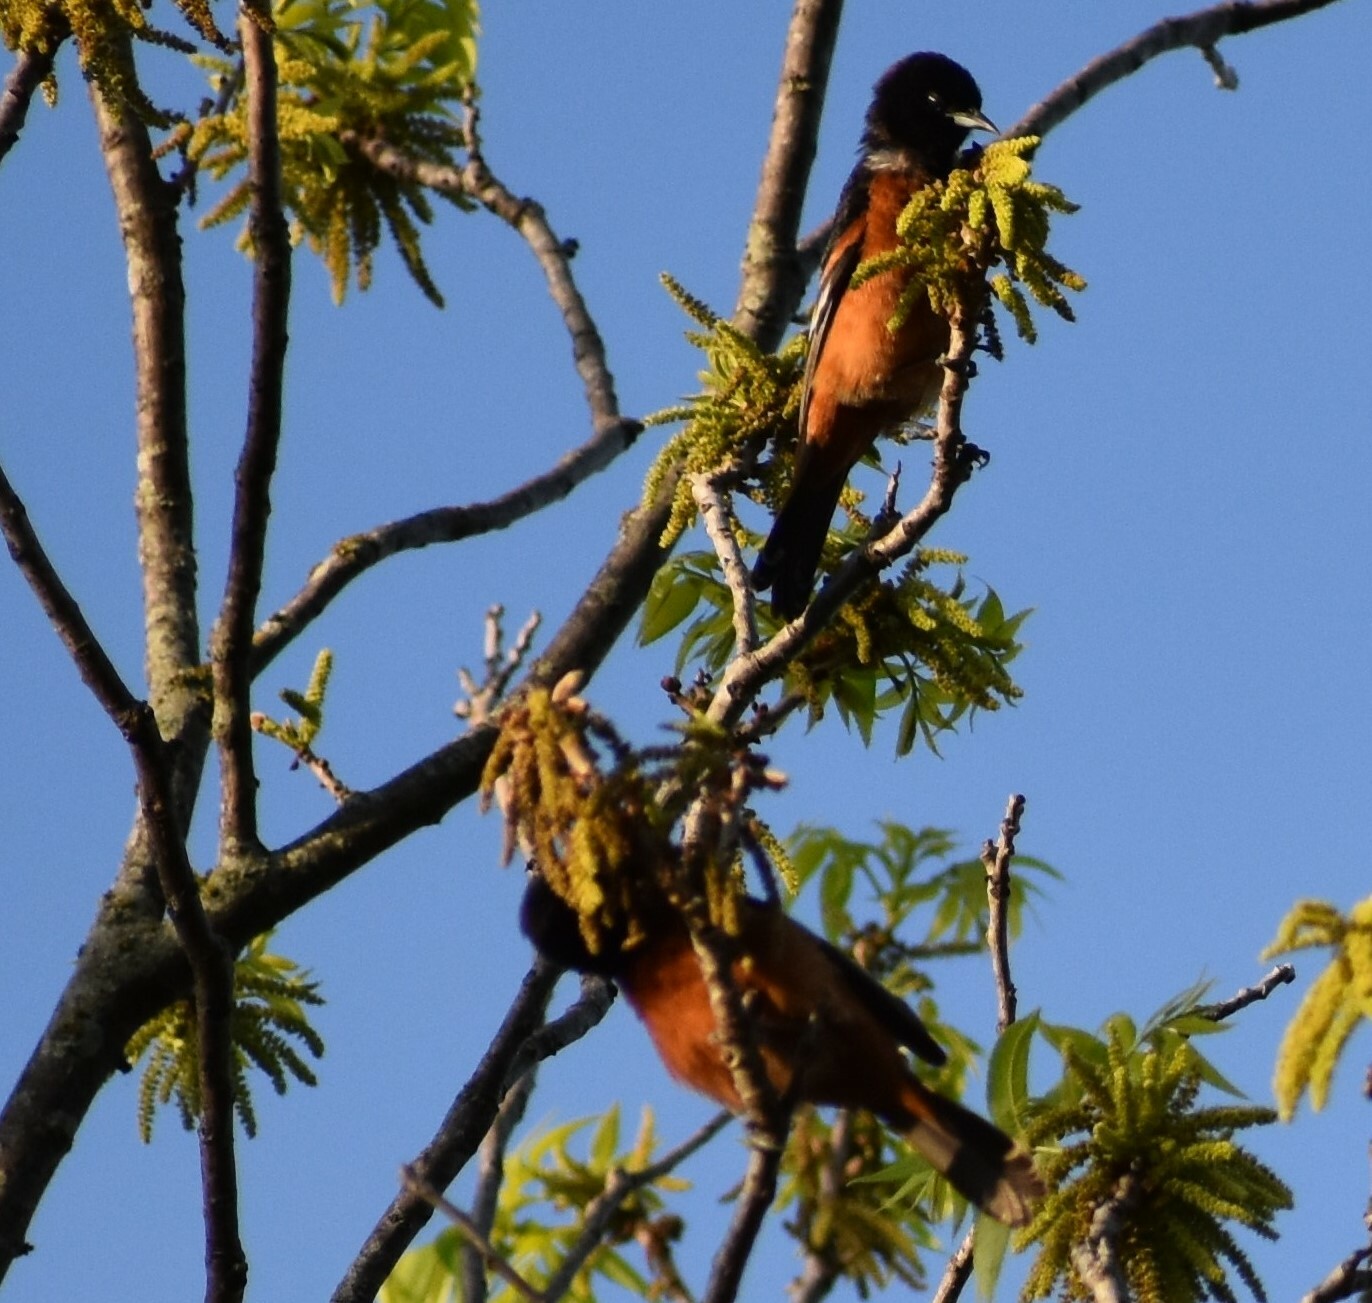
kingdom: Animalia
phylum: Chordata
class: Aves
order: Passeriformes
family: Icteridae
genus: Icterus
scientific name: Icterus spurius
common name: Orchard oriole
